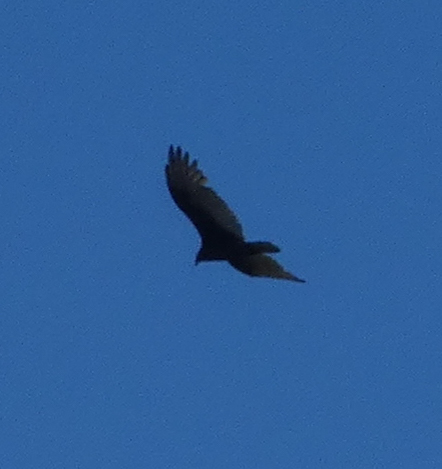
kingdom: Animalia
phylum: Chordata
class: Aves
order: Accipitriformes
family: Cathartidae
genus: Cathartes
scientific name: Cathartes aura
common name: Turkey vulture
